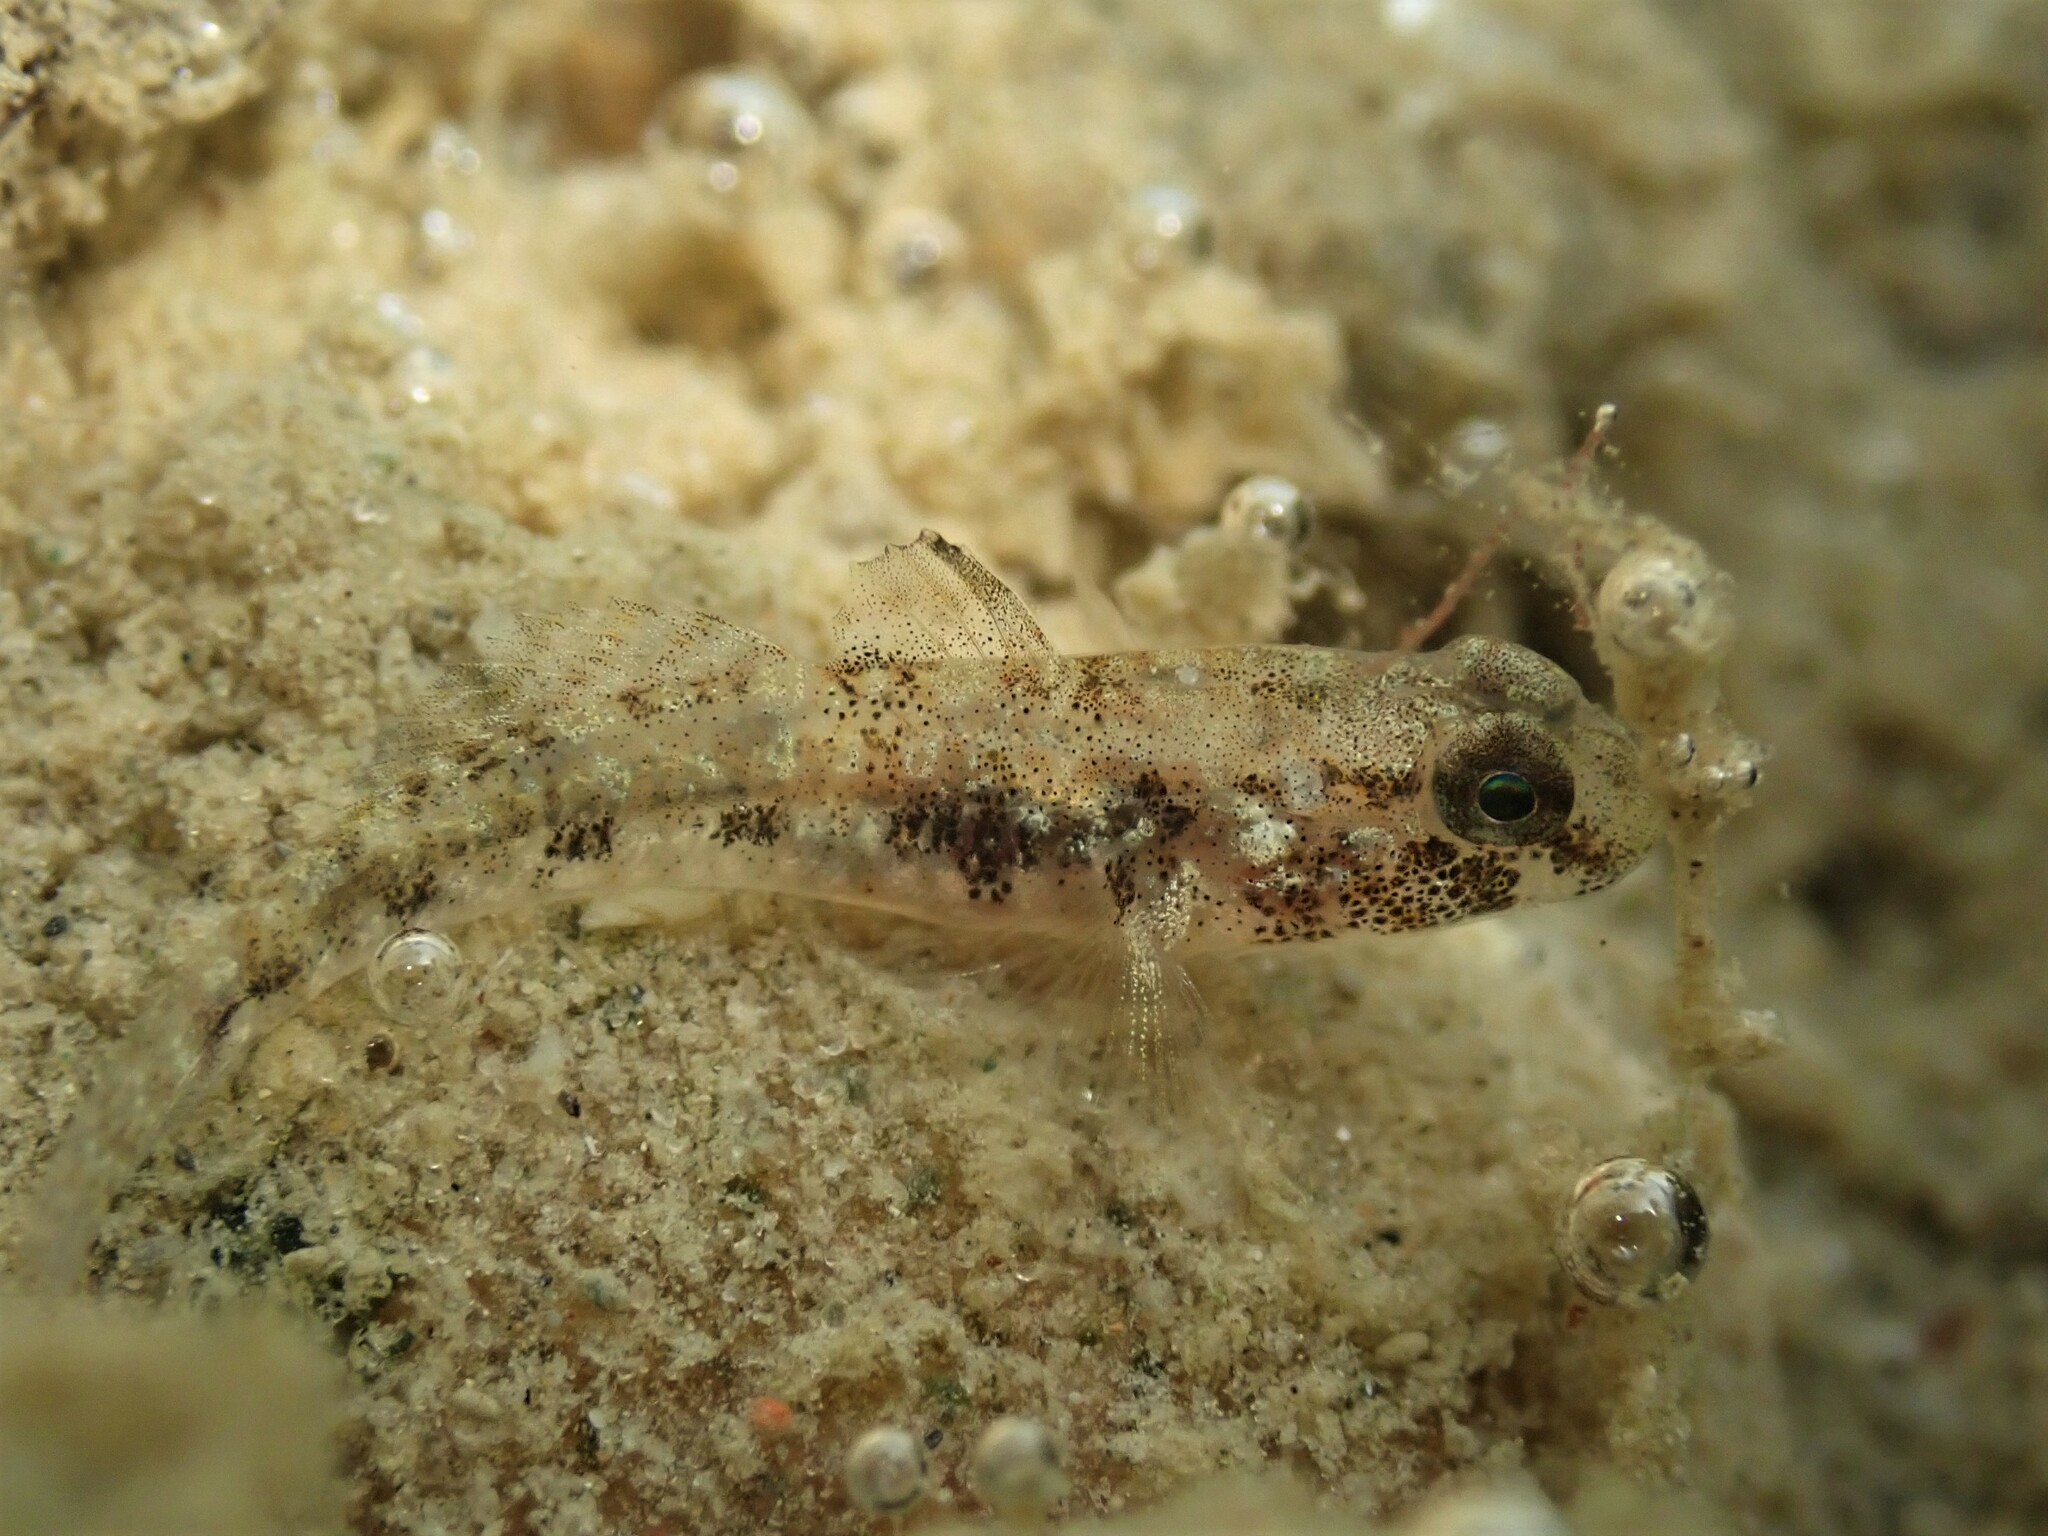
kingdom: Animalia
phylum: Chordata
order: Perciformes
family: Gobiidae
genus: Gobius
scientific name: Gobius niger
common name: Black goby
